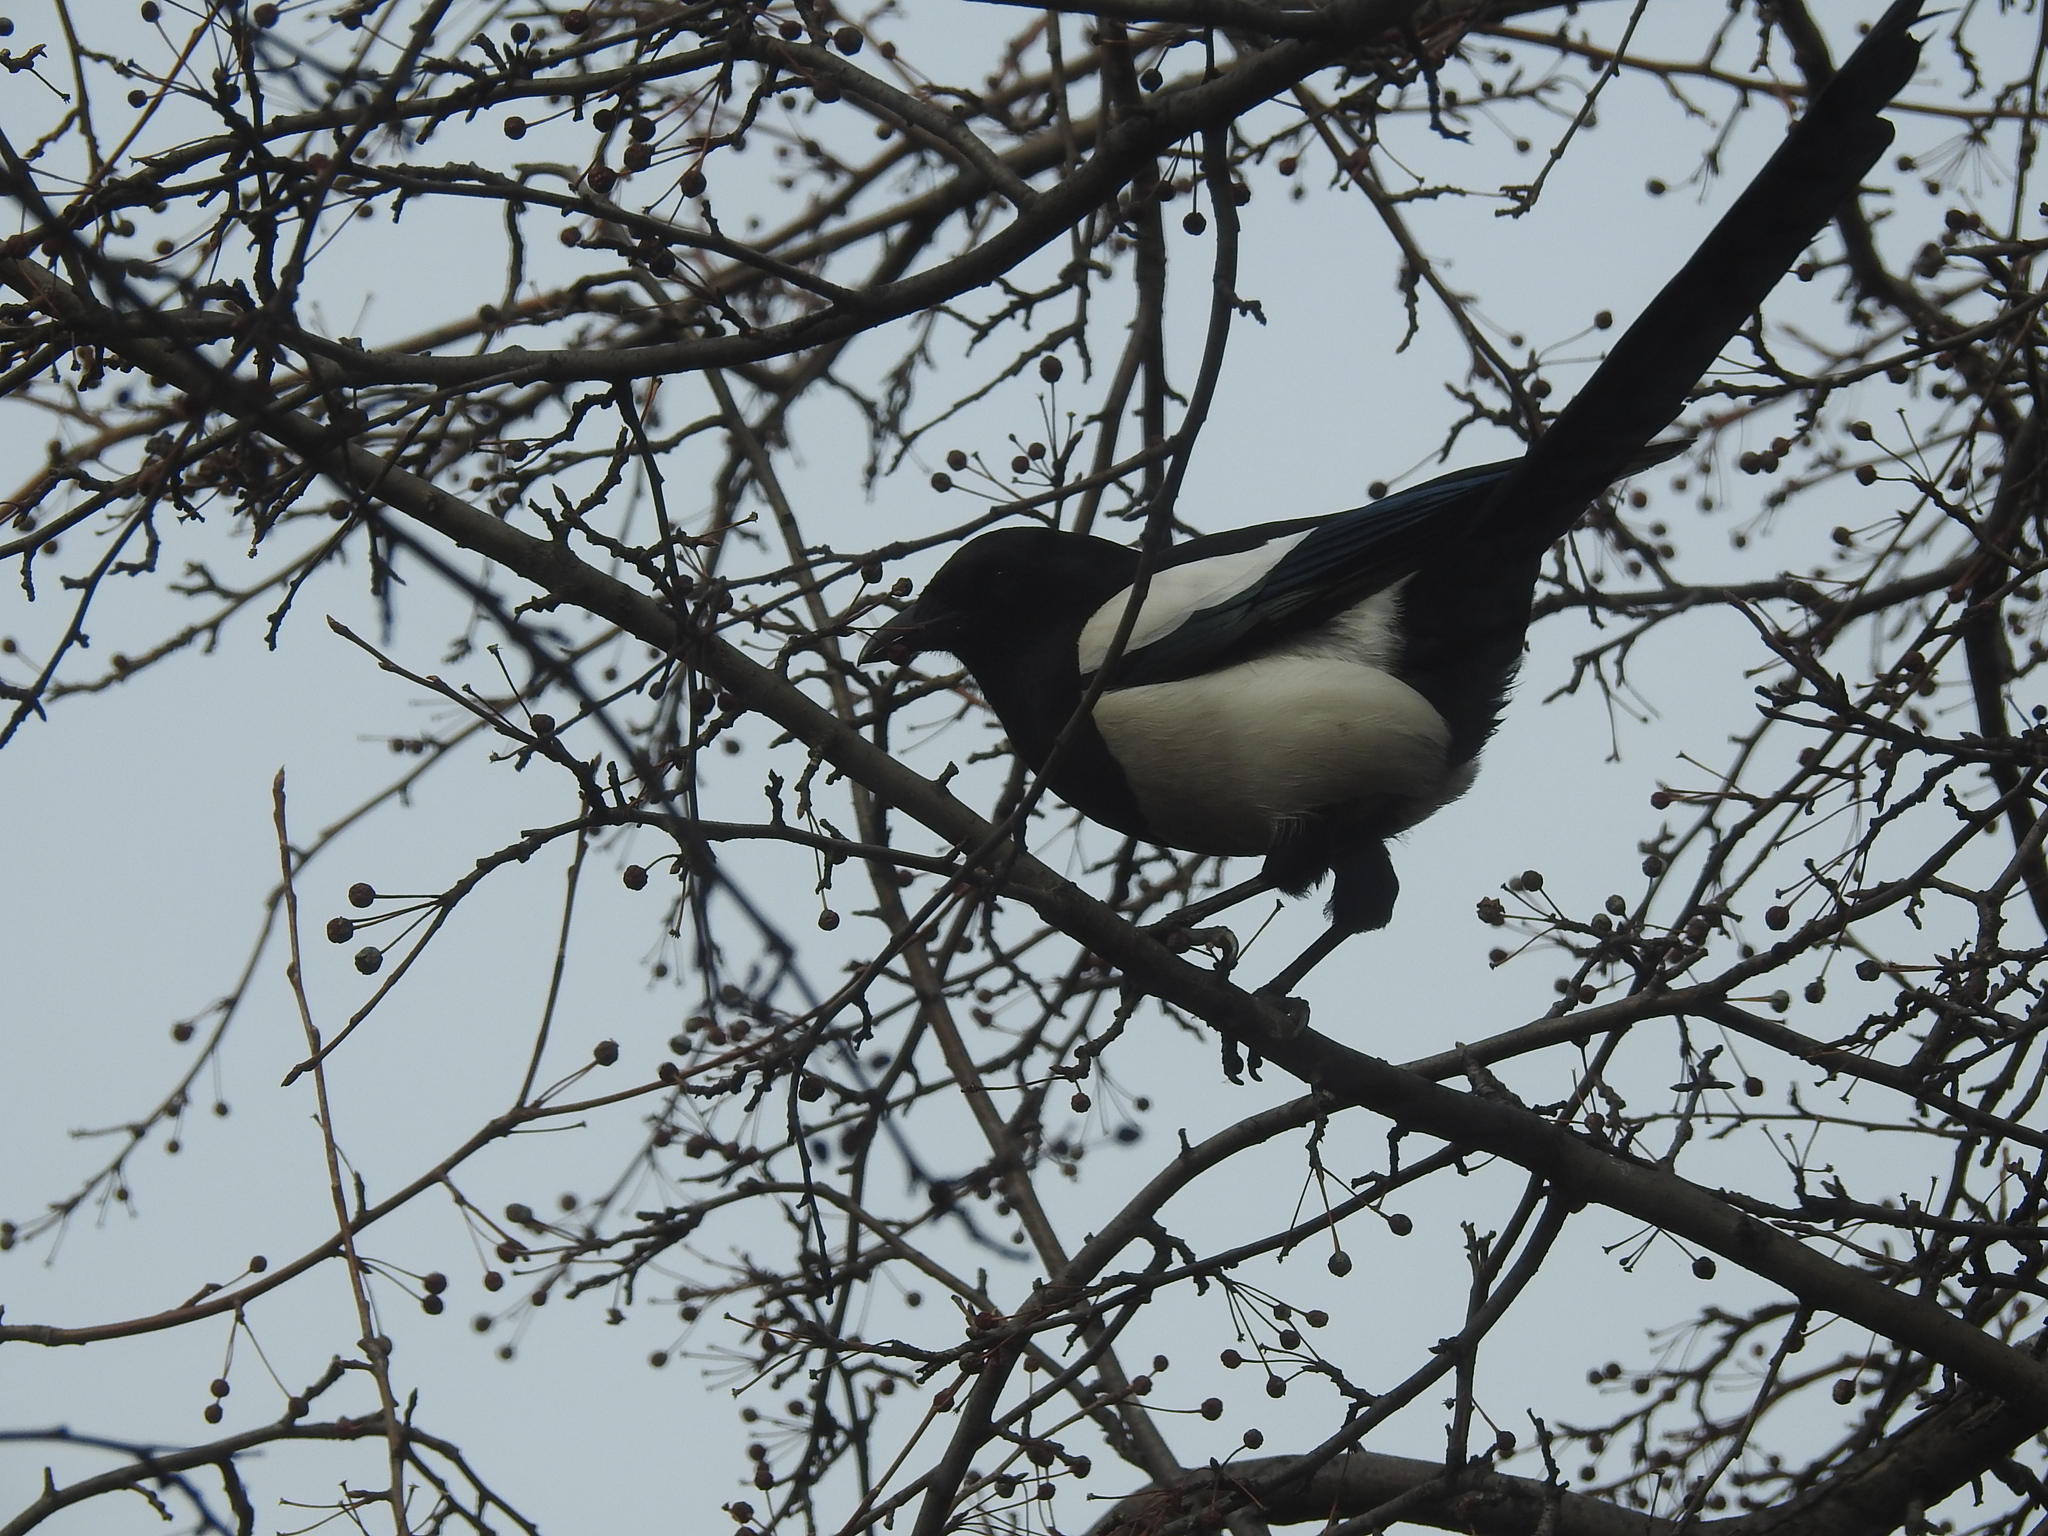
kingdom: Animalia
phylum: Chordata
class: Aves
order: Passeriformes
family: Corvidae
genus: Pica
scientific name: Pica pica
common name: Eurasian magpie
